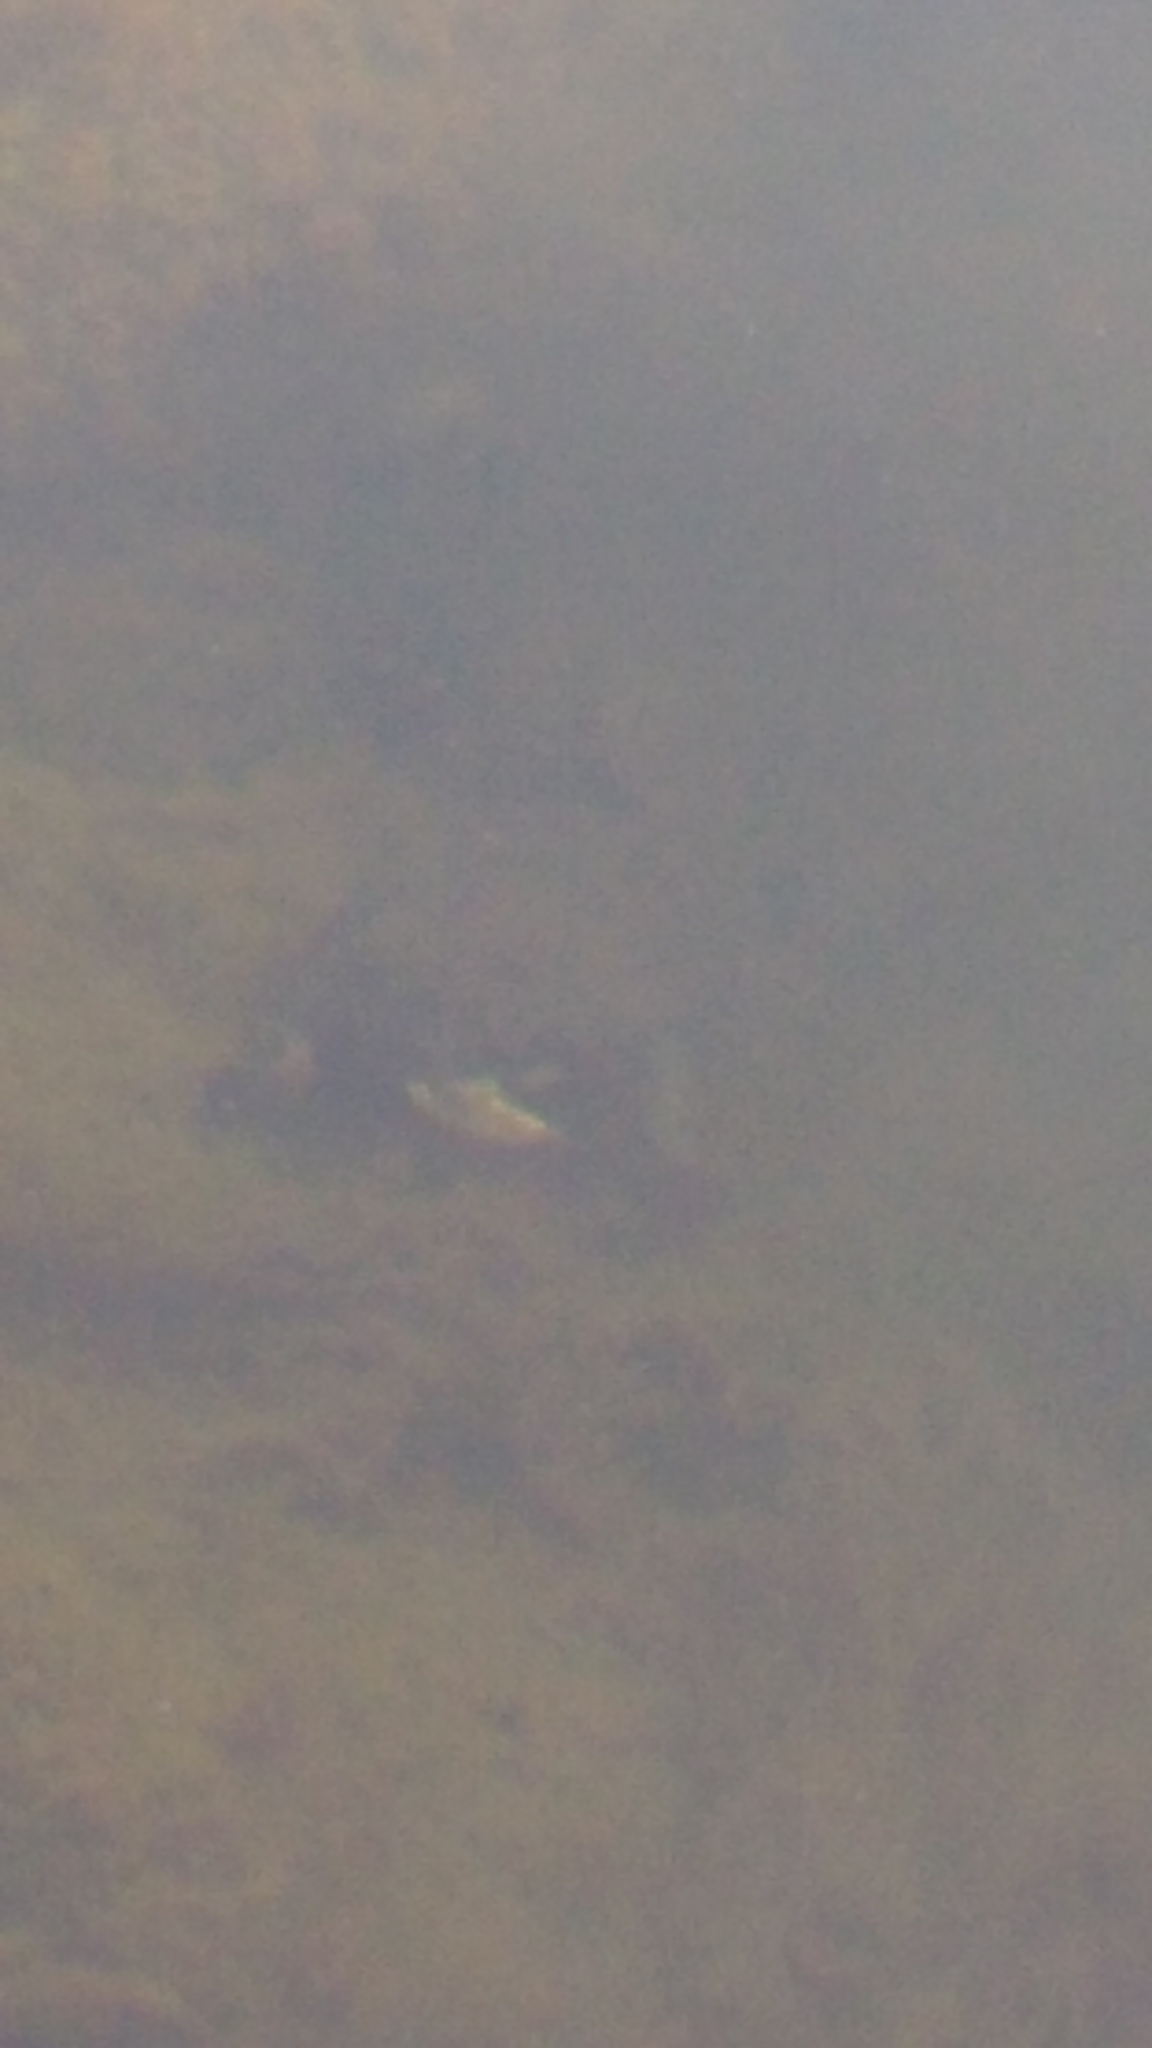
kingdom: Animalia
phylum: Chordata
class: Testudines
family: Chelidae
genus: Hydromedusa
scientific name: Hydromedusa tectifera
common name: Argentine snake-necked turtle
